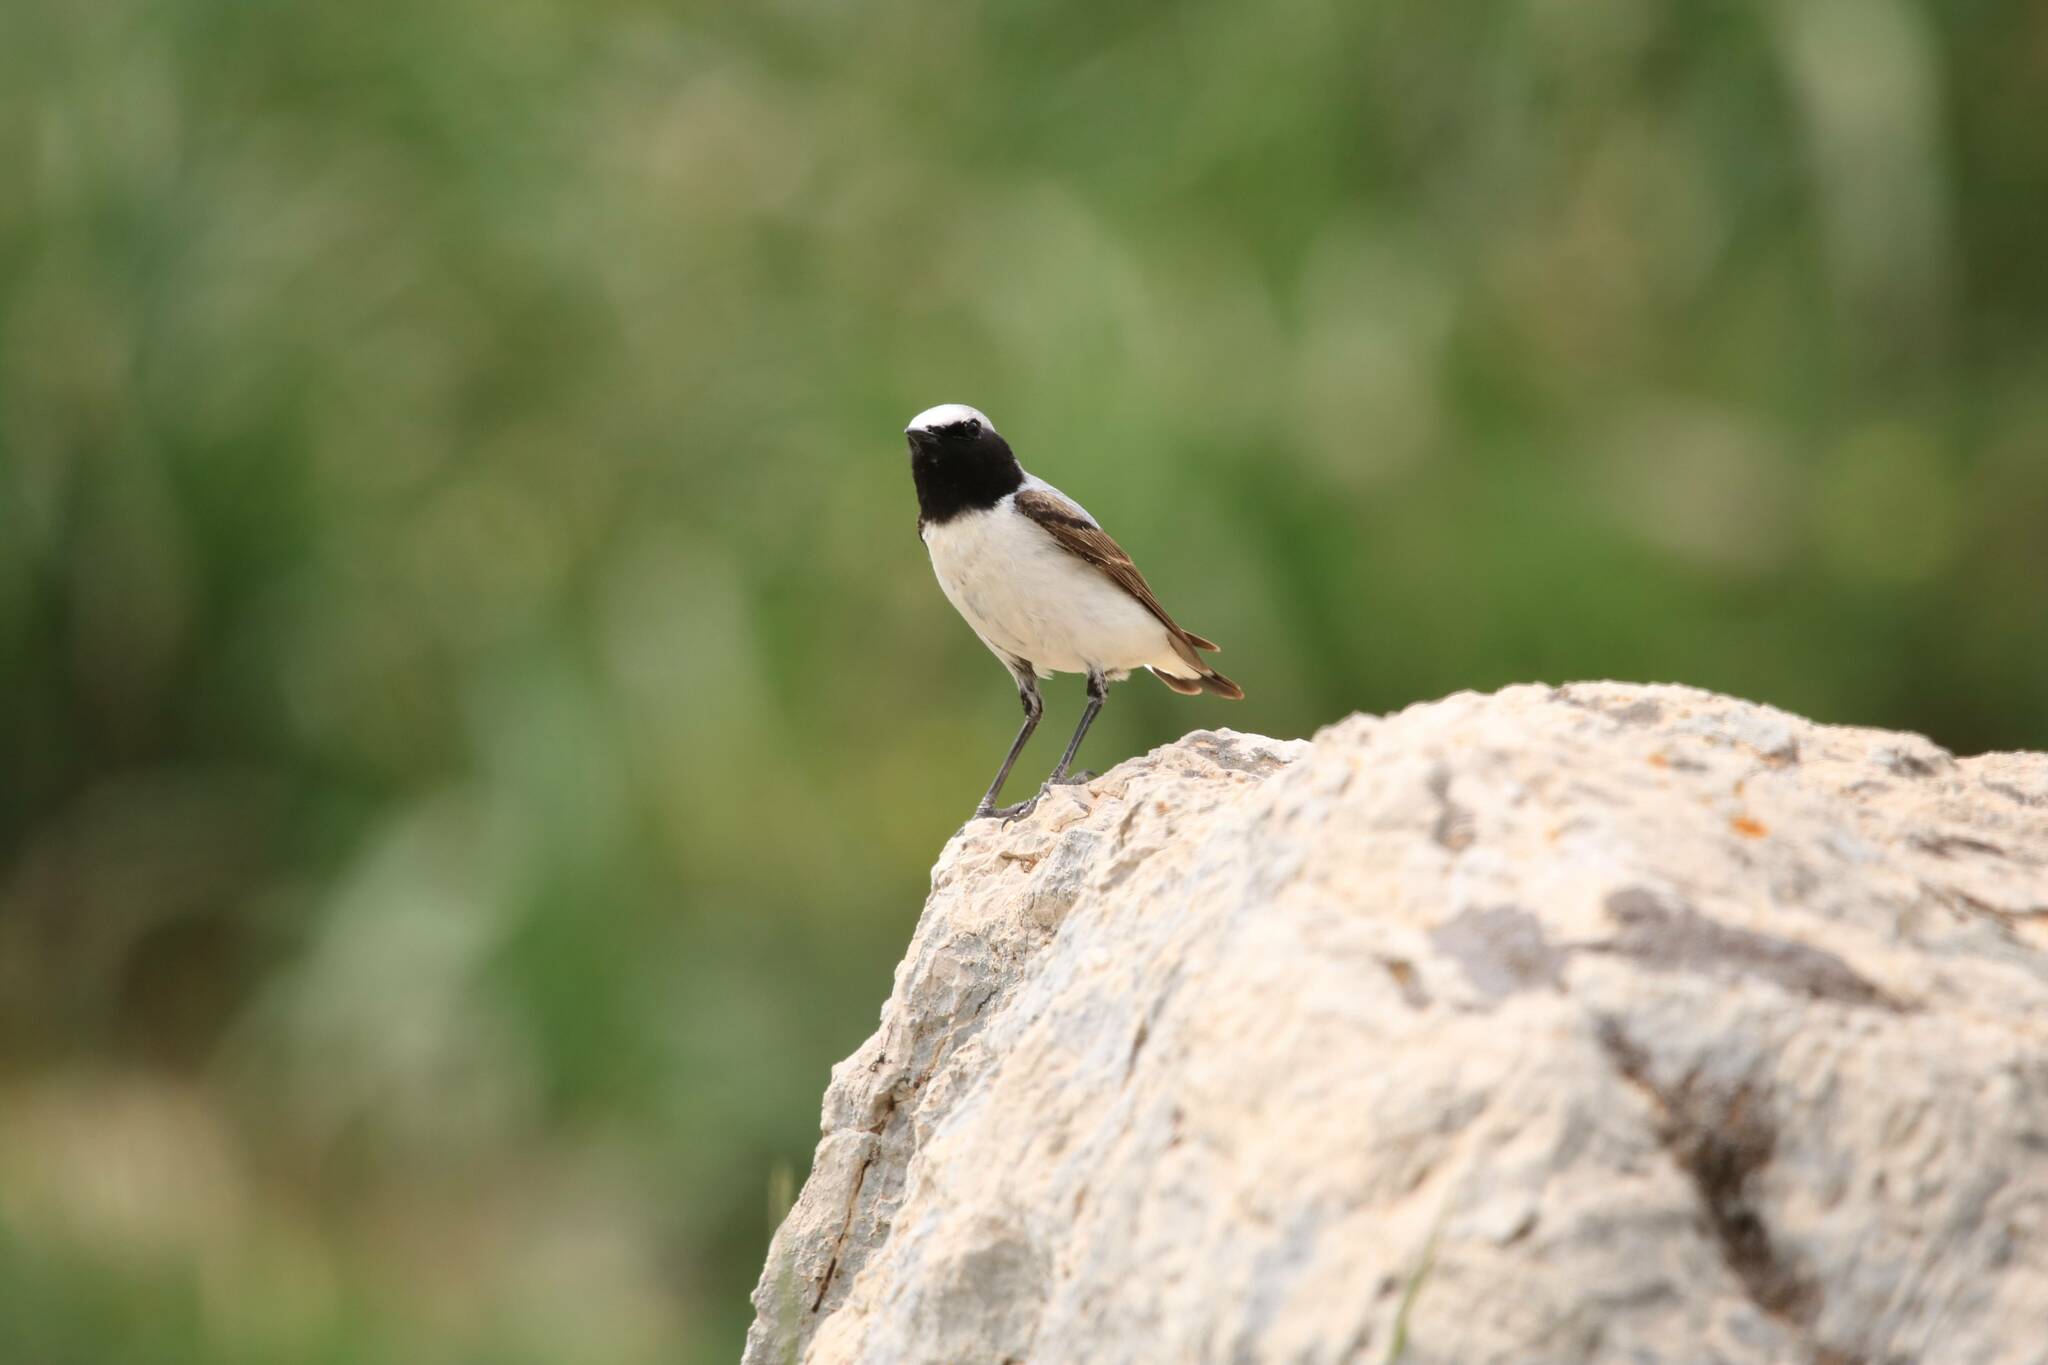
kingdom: Animalia
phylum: Chordata
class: Aves
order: Passeriformes
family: Muscicapidae
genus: Oenanthe
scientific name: Oenanthe oenanthe
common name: Northern wheatear
